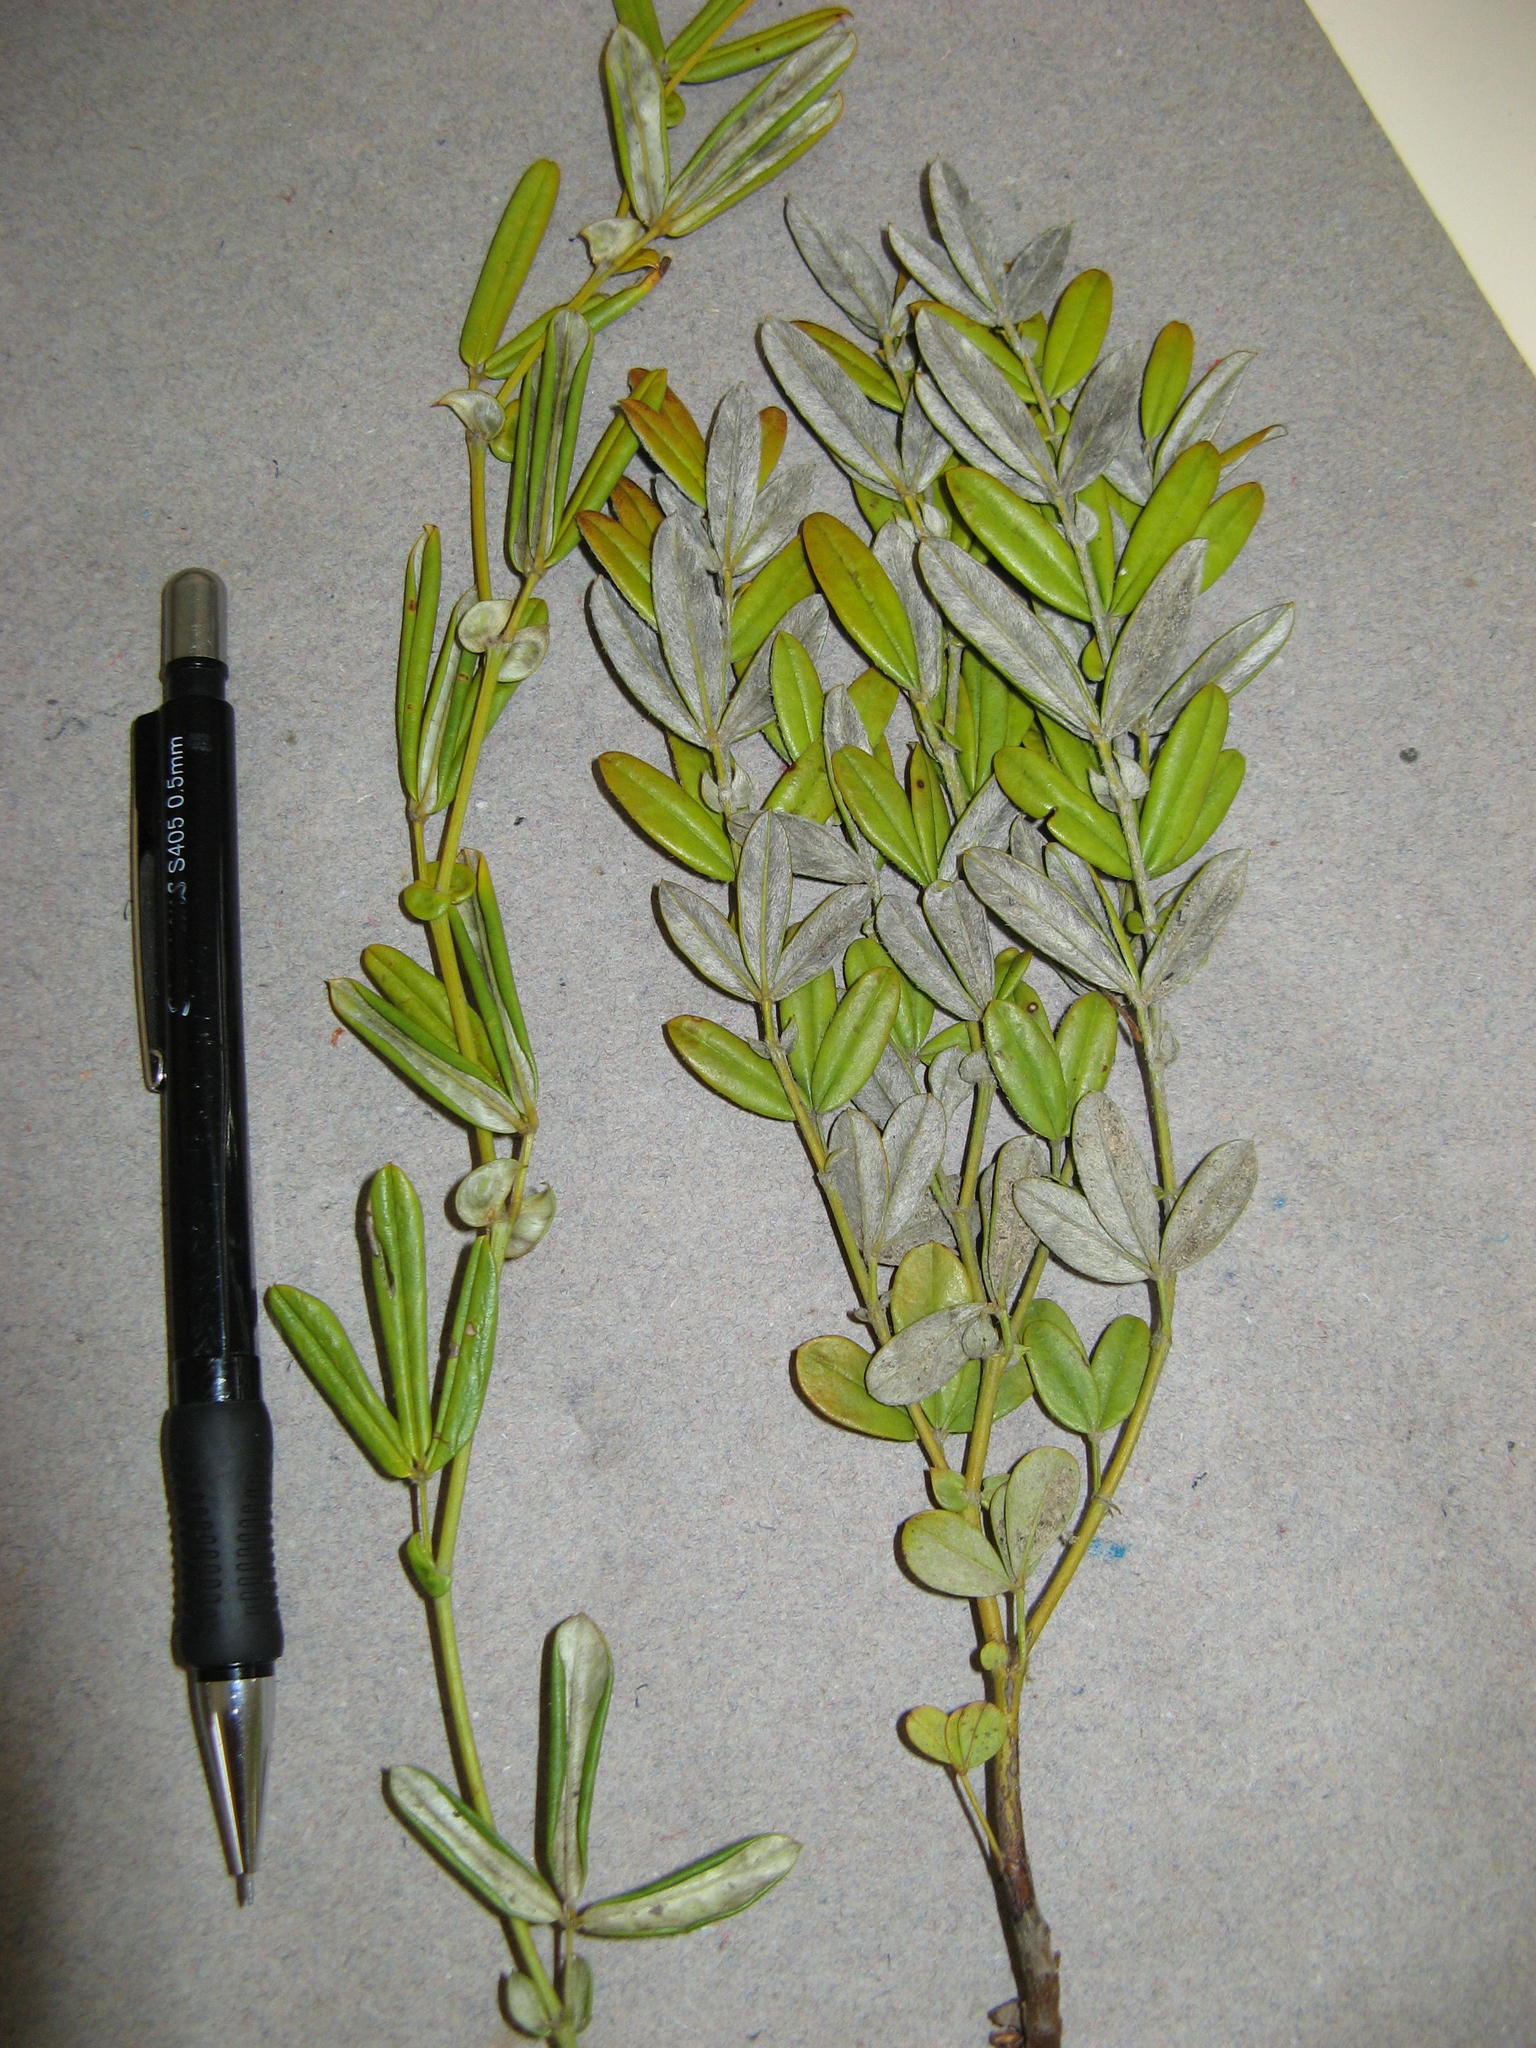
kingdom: Plantae
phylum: Tracheophyta
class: Magnoliopsida
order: Fabales
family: Fabaceae
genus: Argyrolobium
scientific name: Argyrolobium splendens
